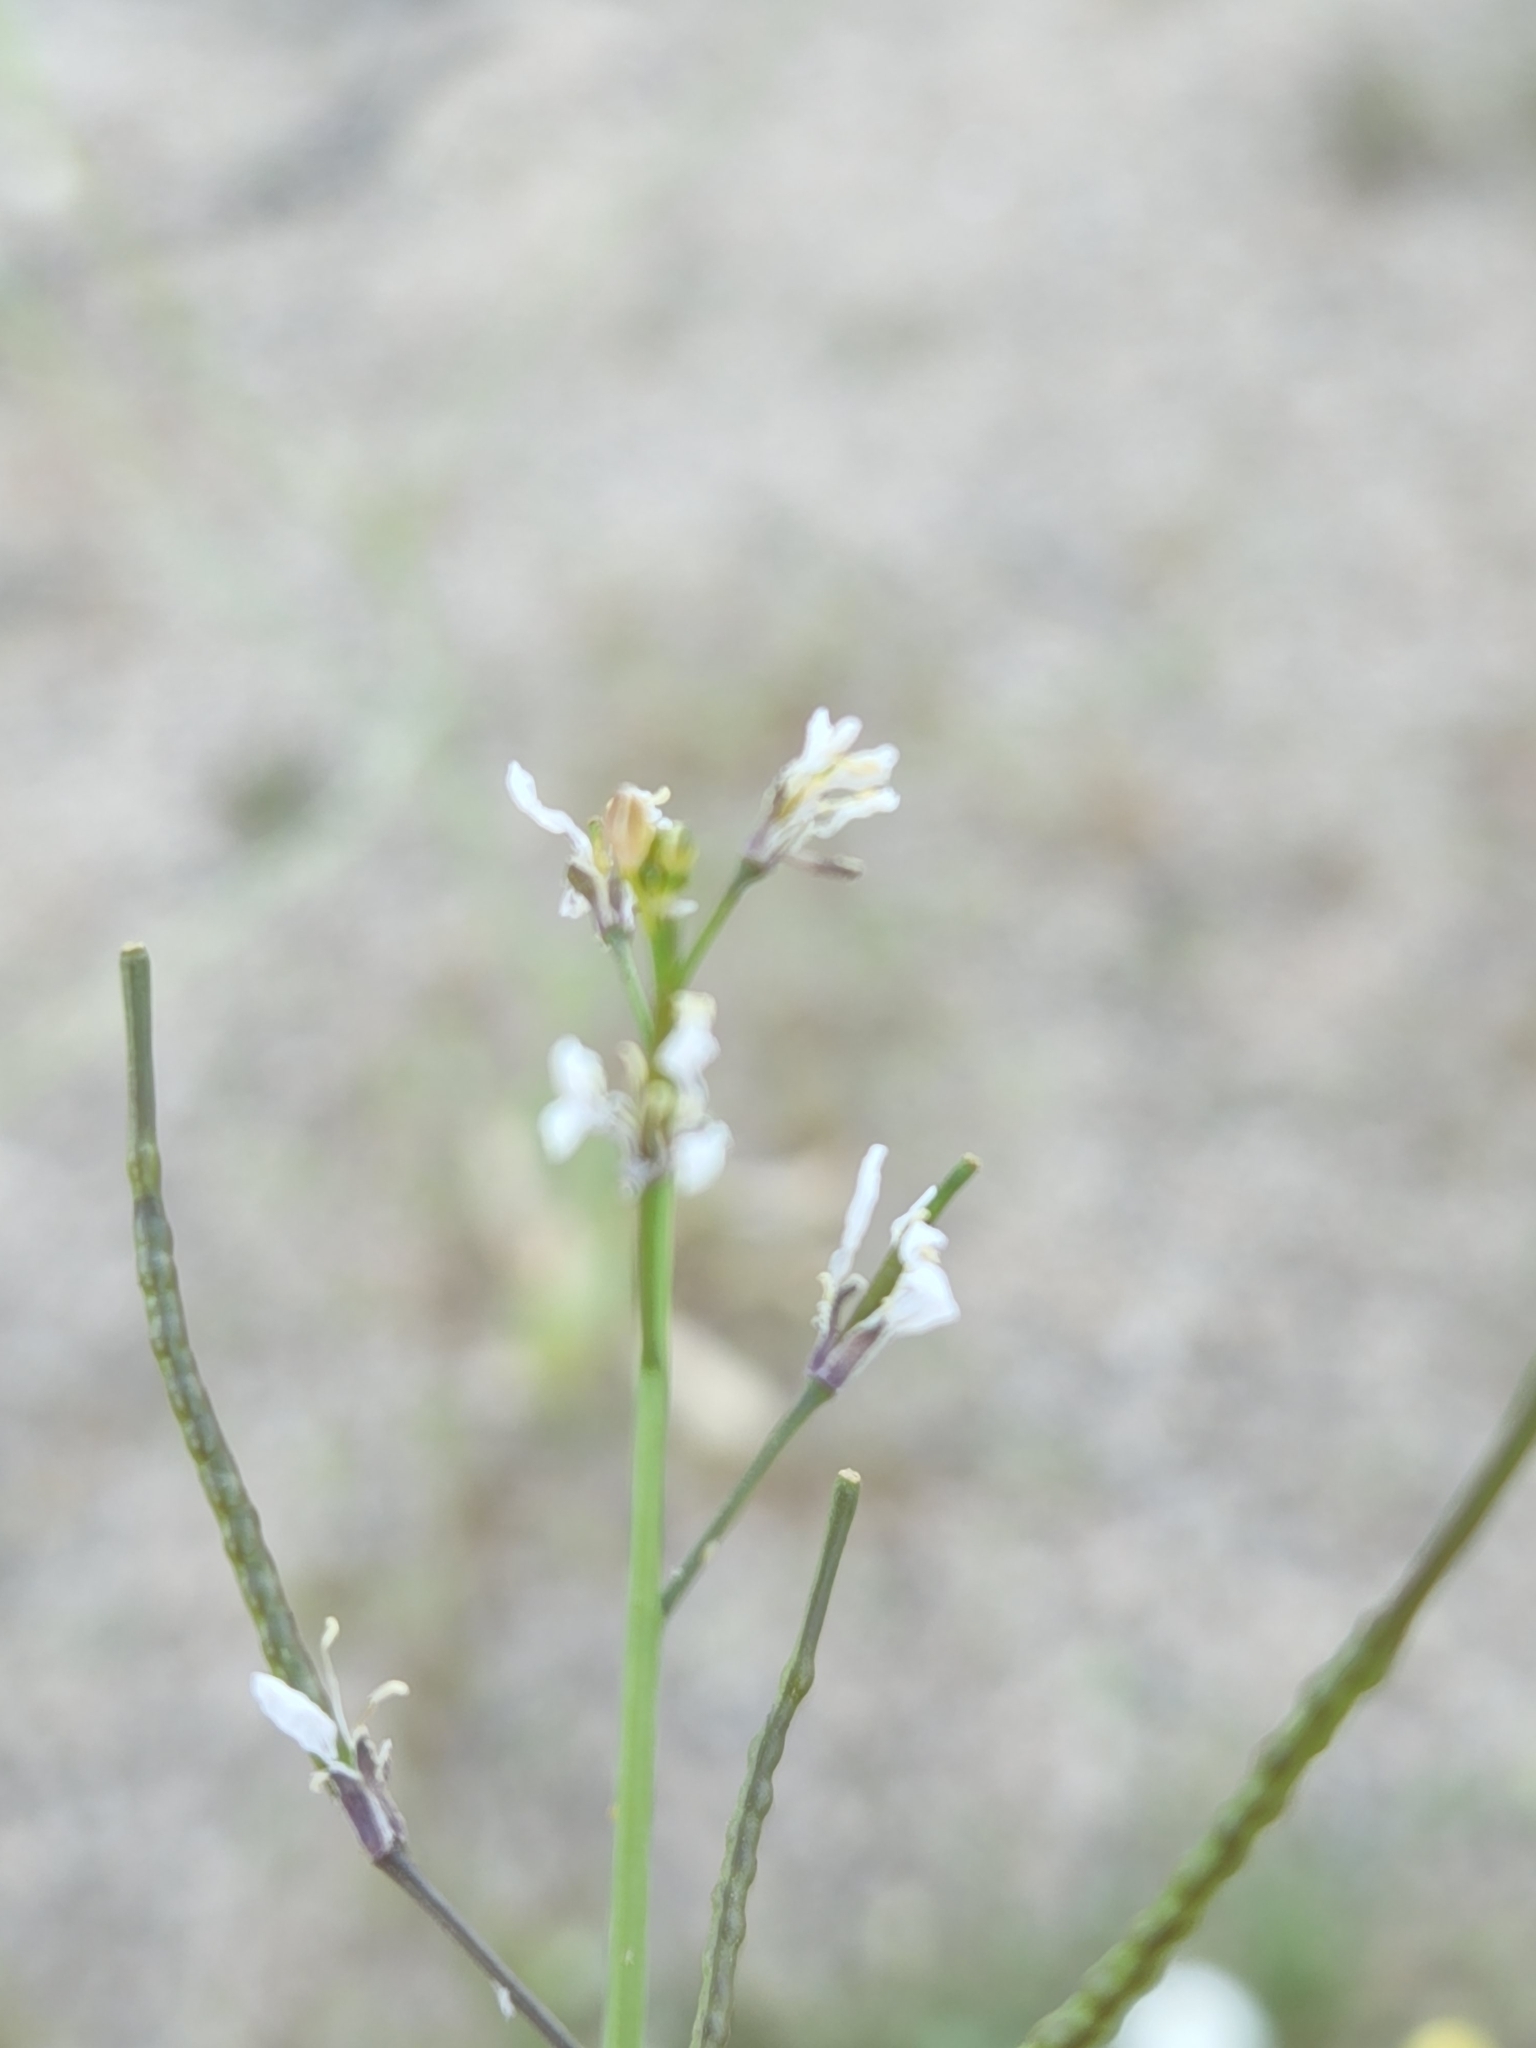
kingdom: Plantae
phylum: Tracheophyta
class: Magnoliopsida
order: Brassicales
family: Brassicaceae
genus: Streptanthus
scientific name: Streptanthus lasiophyllus
